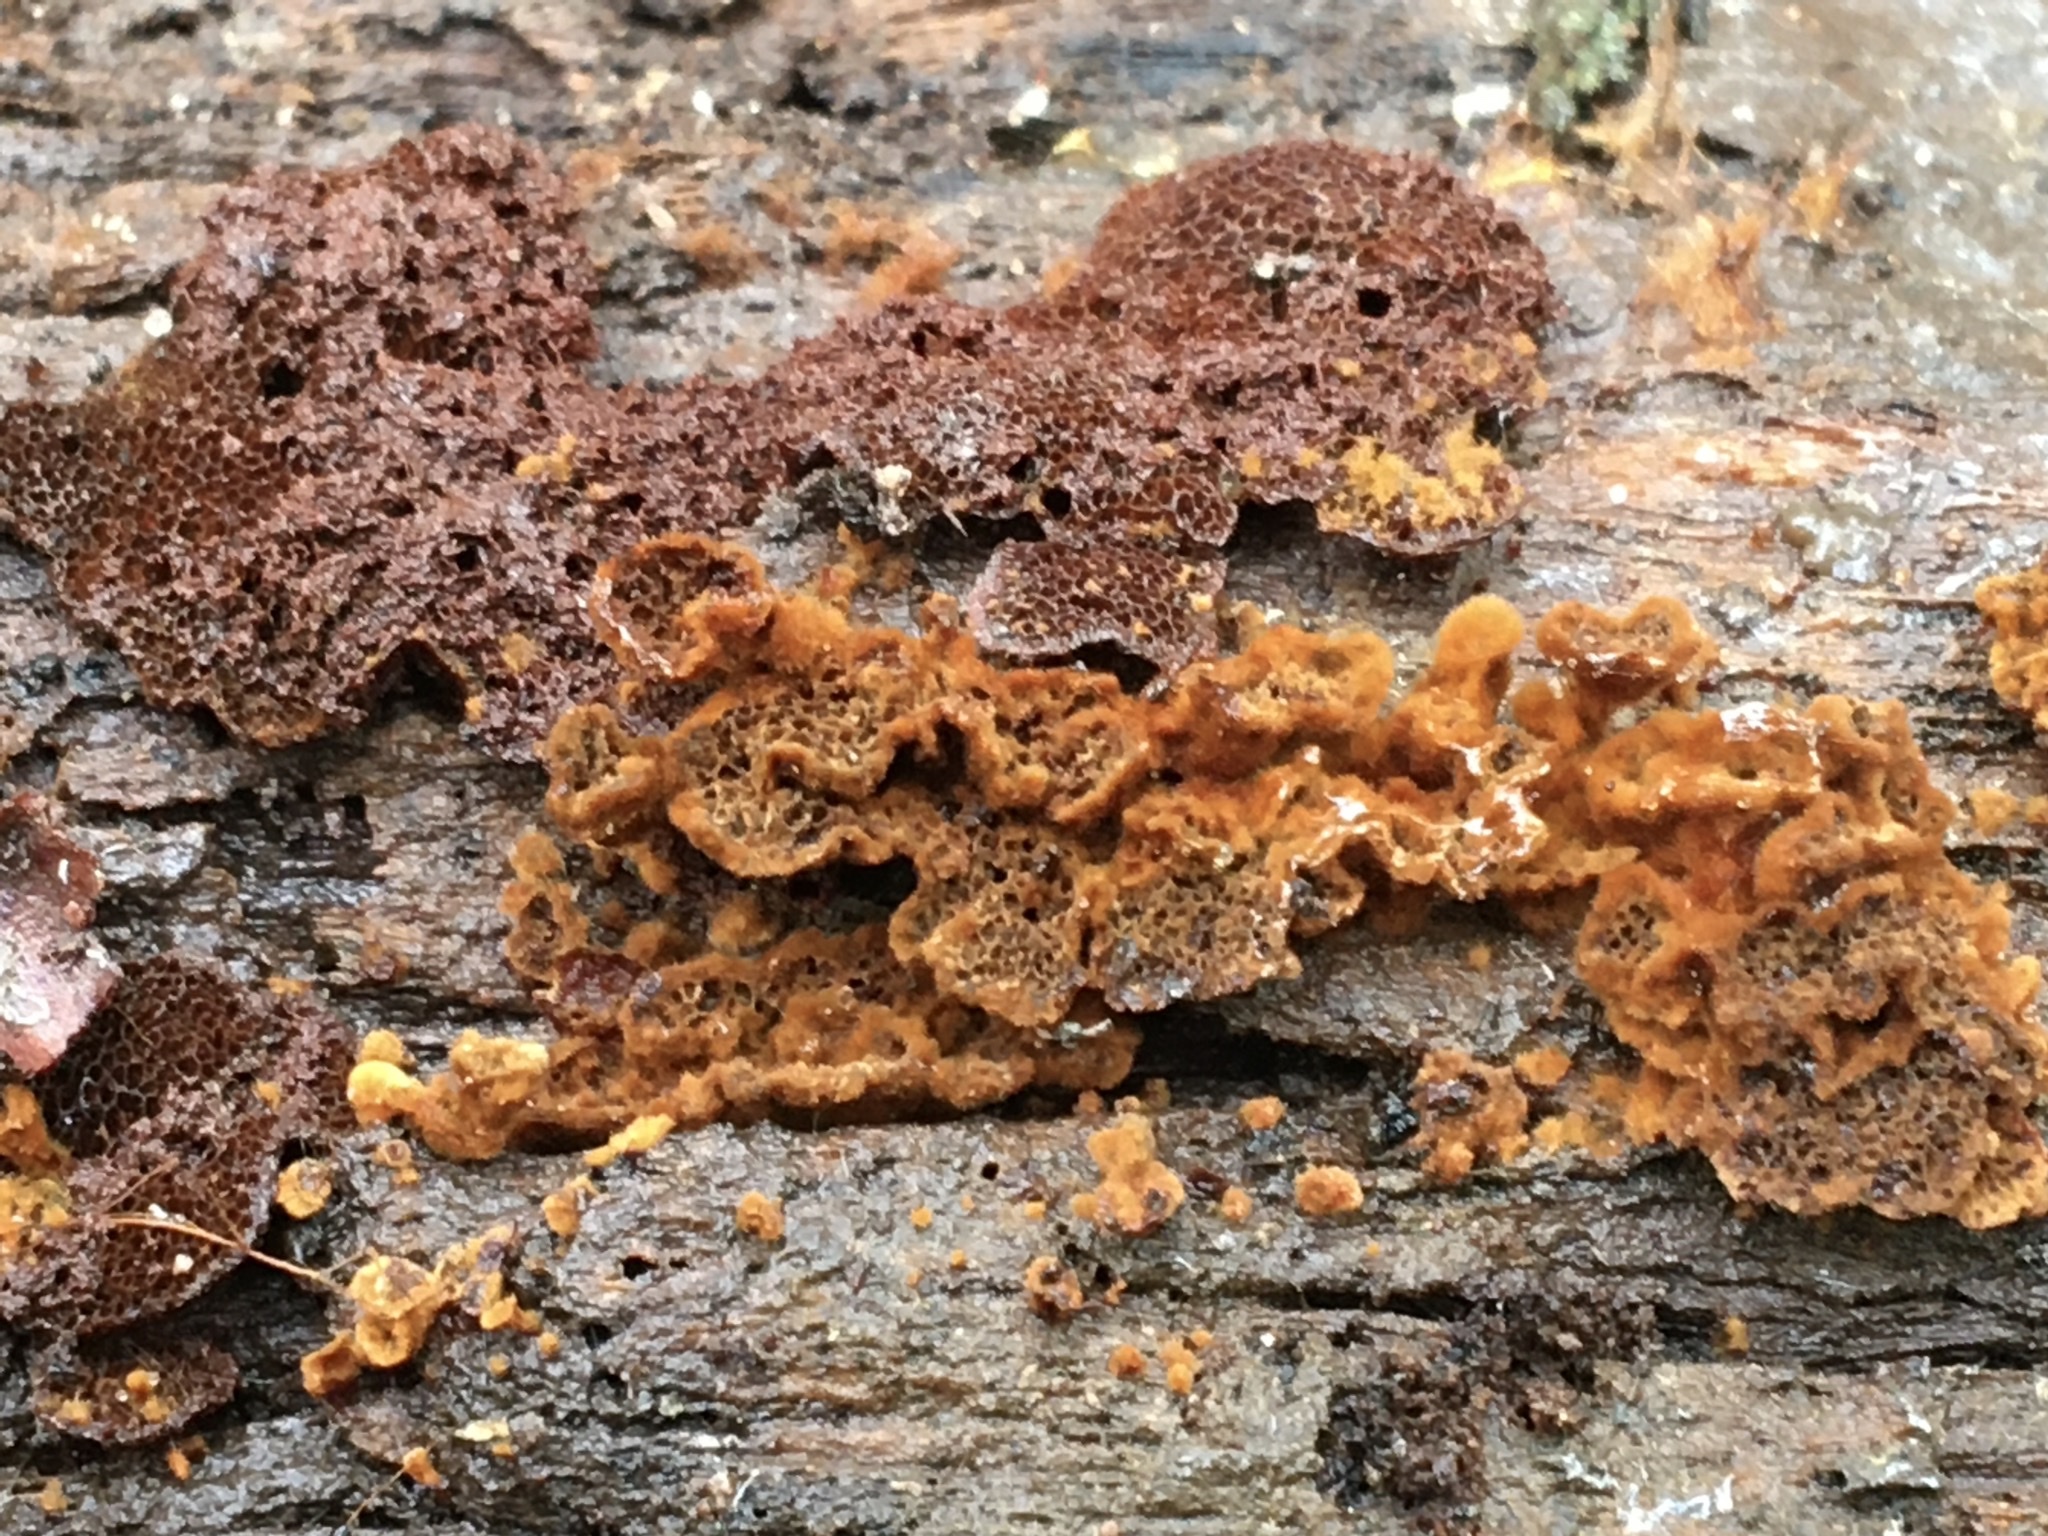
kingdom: Fungi
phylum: Basidiomycota
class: Agaricomycetes
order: Hymenochaetales
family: Hymenochaetaceae
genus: Coltriciella
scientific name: Coltriciella dependens
